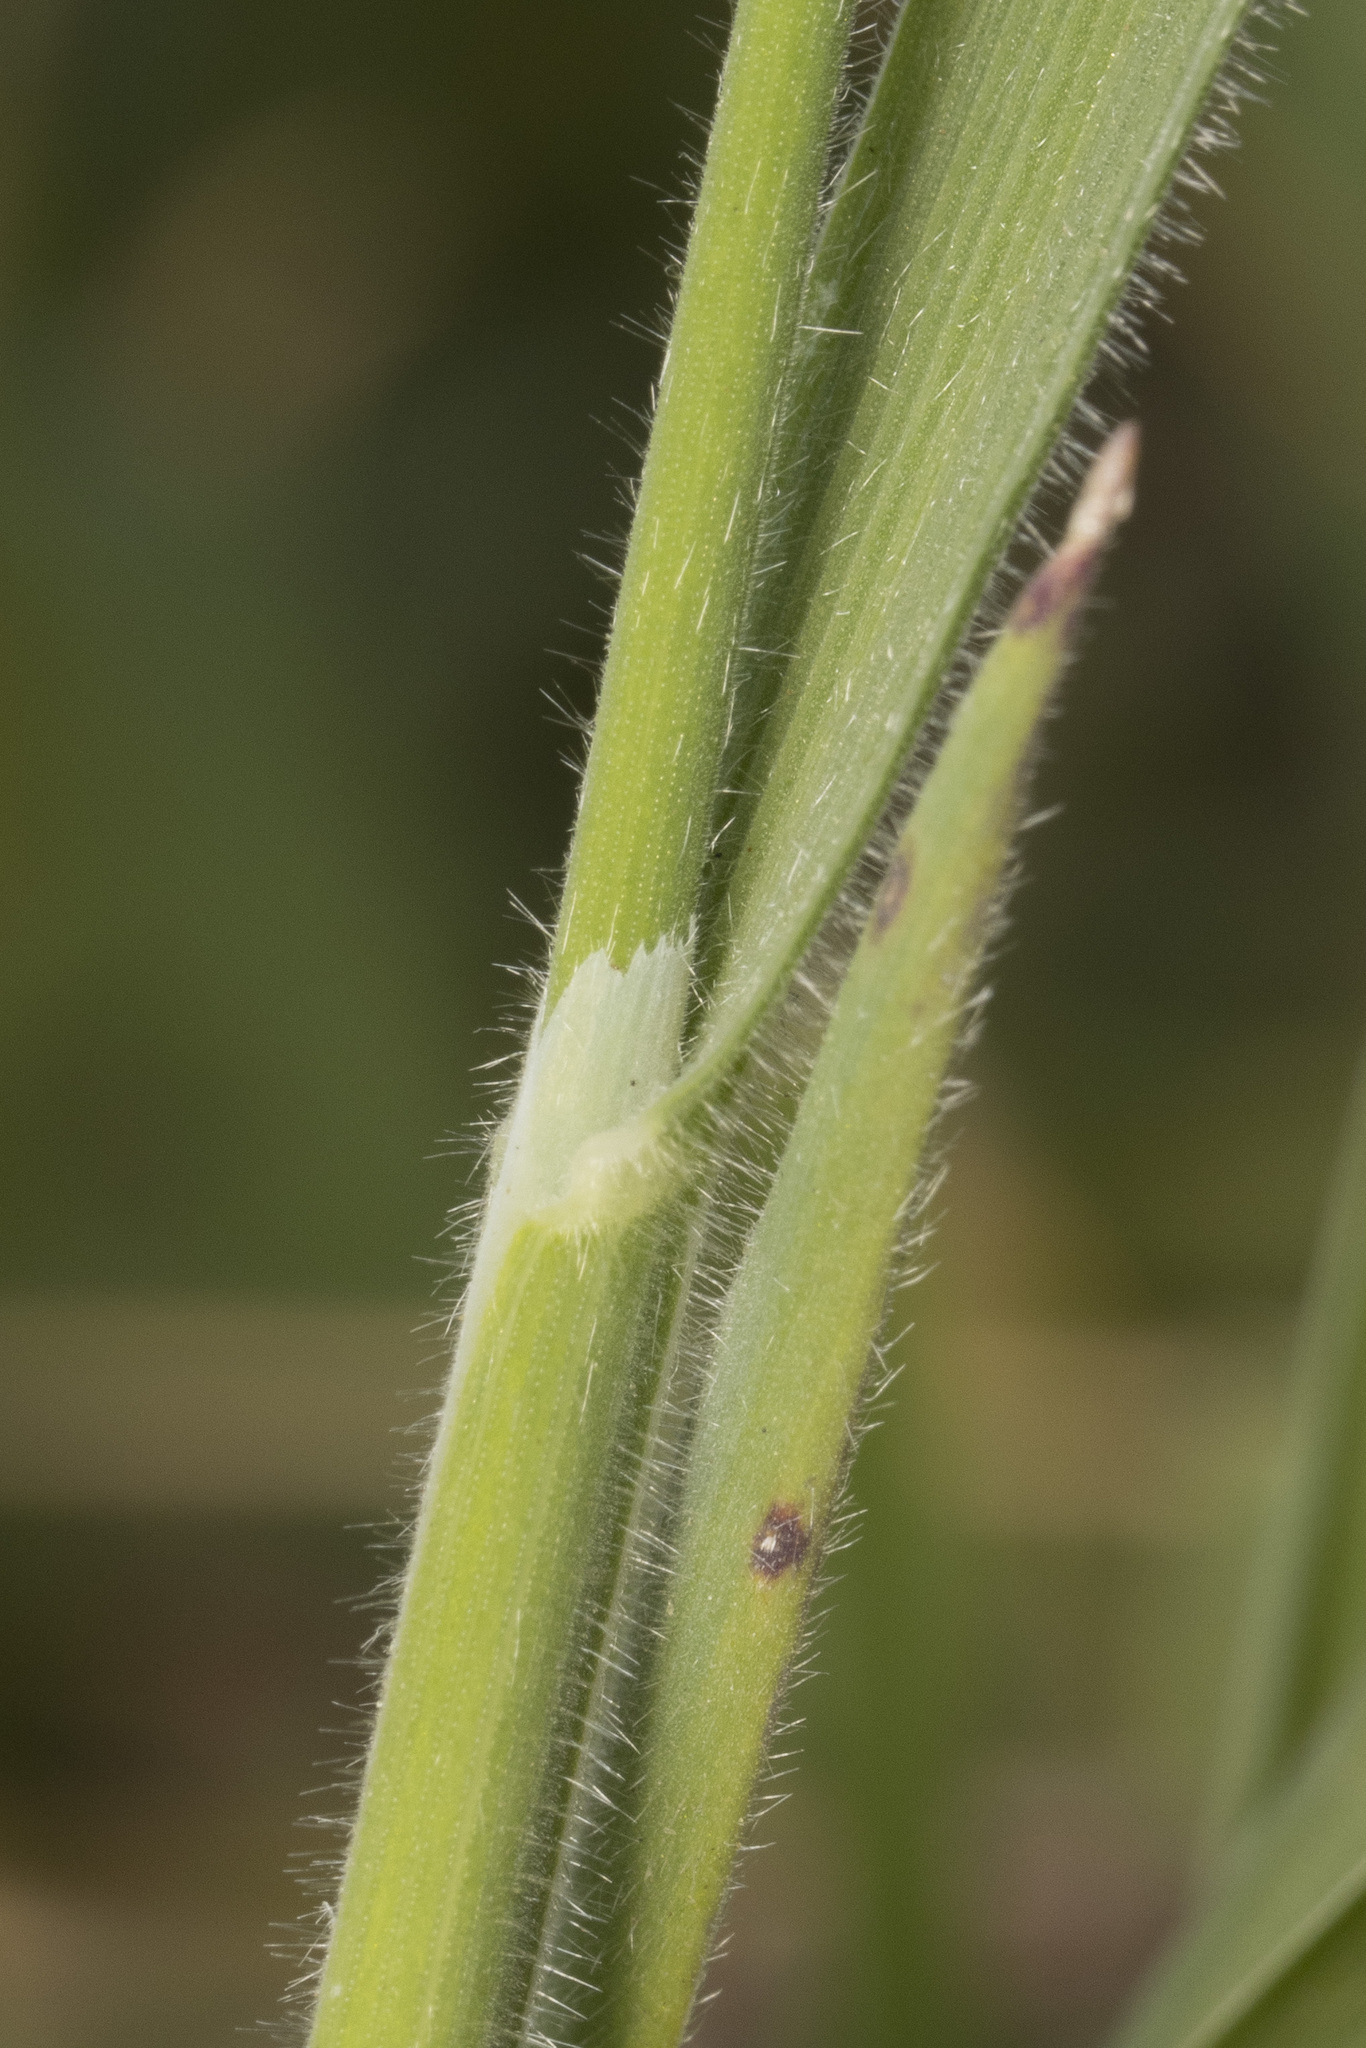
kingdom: Plantae
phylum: Tracheophyta
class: Liliopsida
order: Poales
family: Poaceae
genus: Holcus
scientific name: Holcus lanatus
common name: Yorkshire-fog
